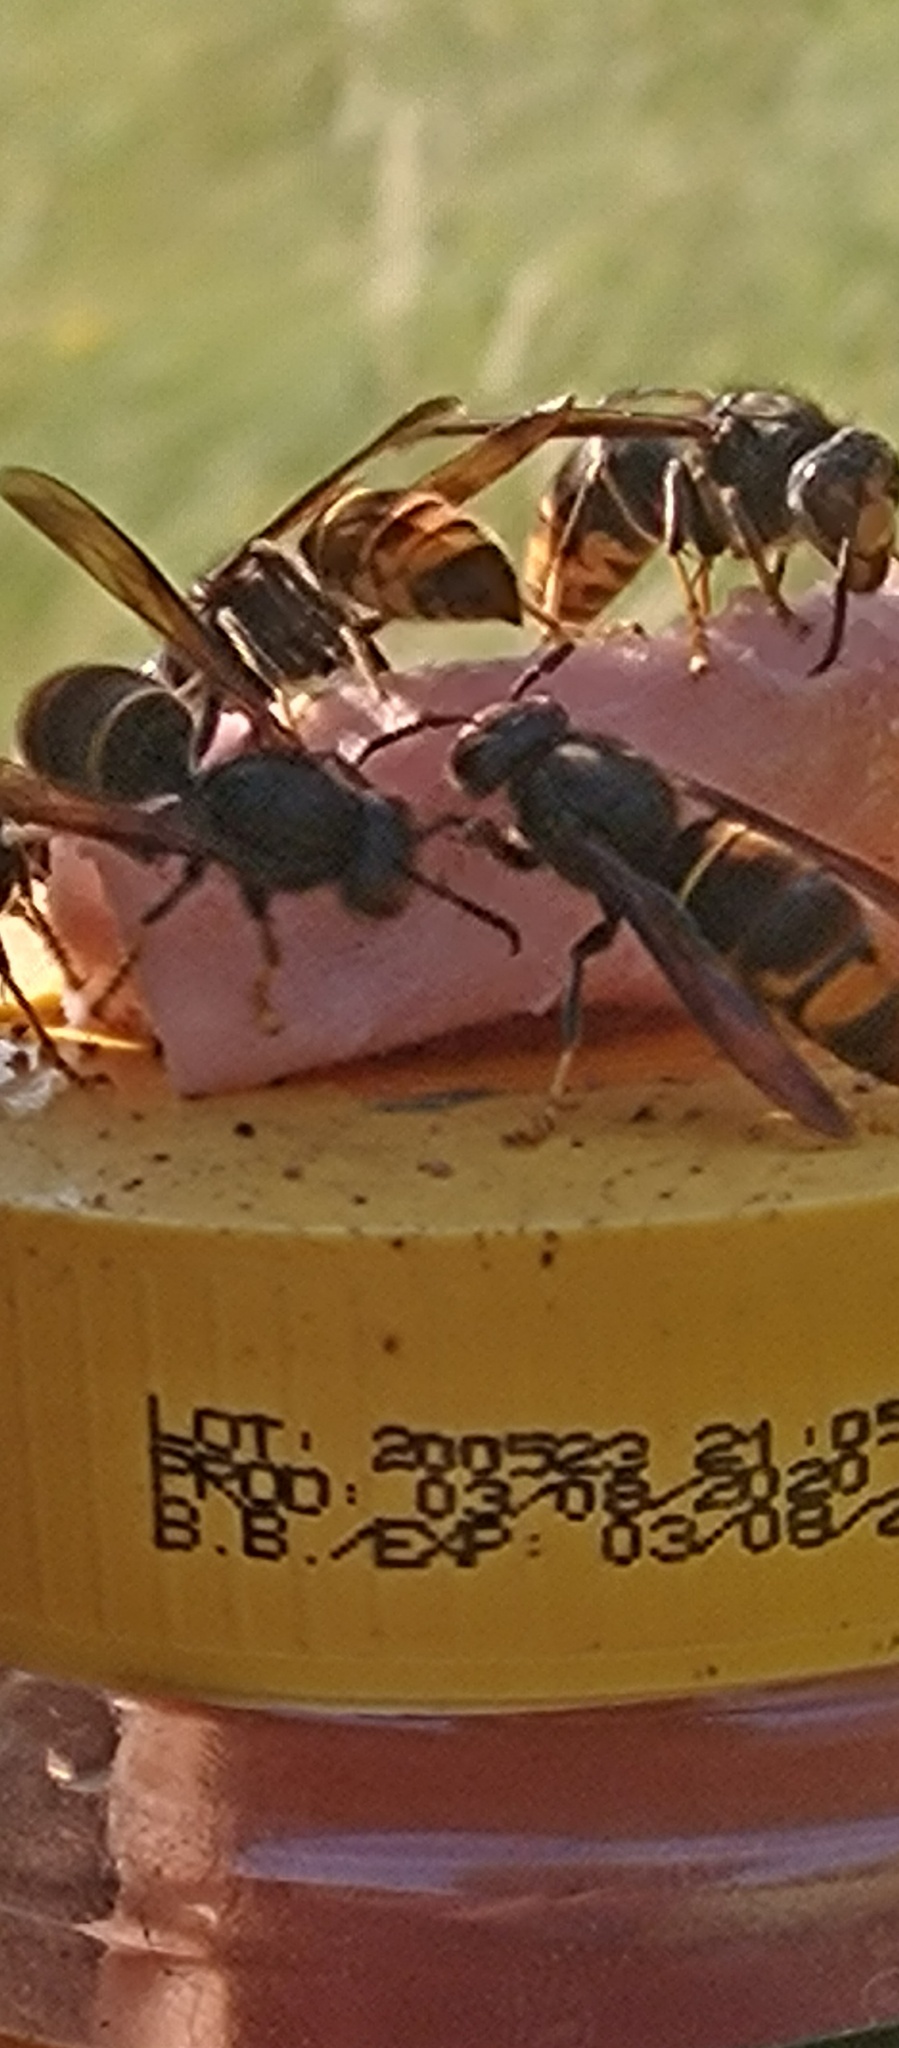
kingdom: Animalia
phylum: Arthropoda
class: Insecta
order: Hymenoptera
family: Vespidae
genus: Vespa
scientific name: Vespa velutina
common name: Asian hornet
